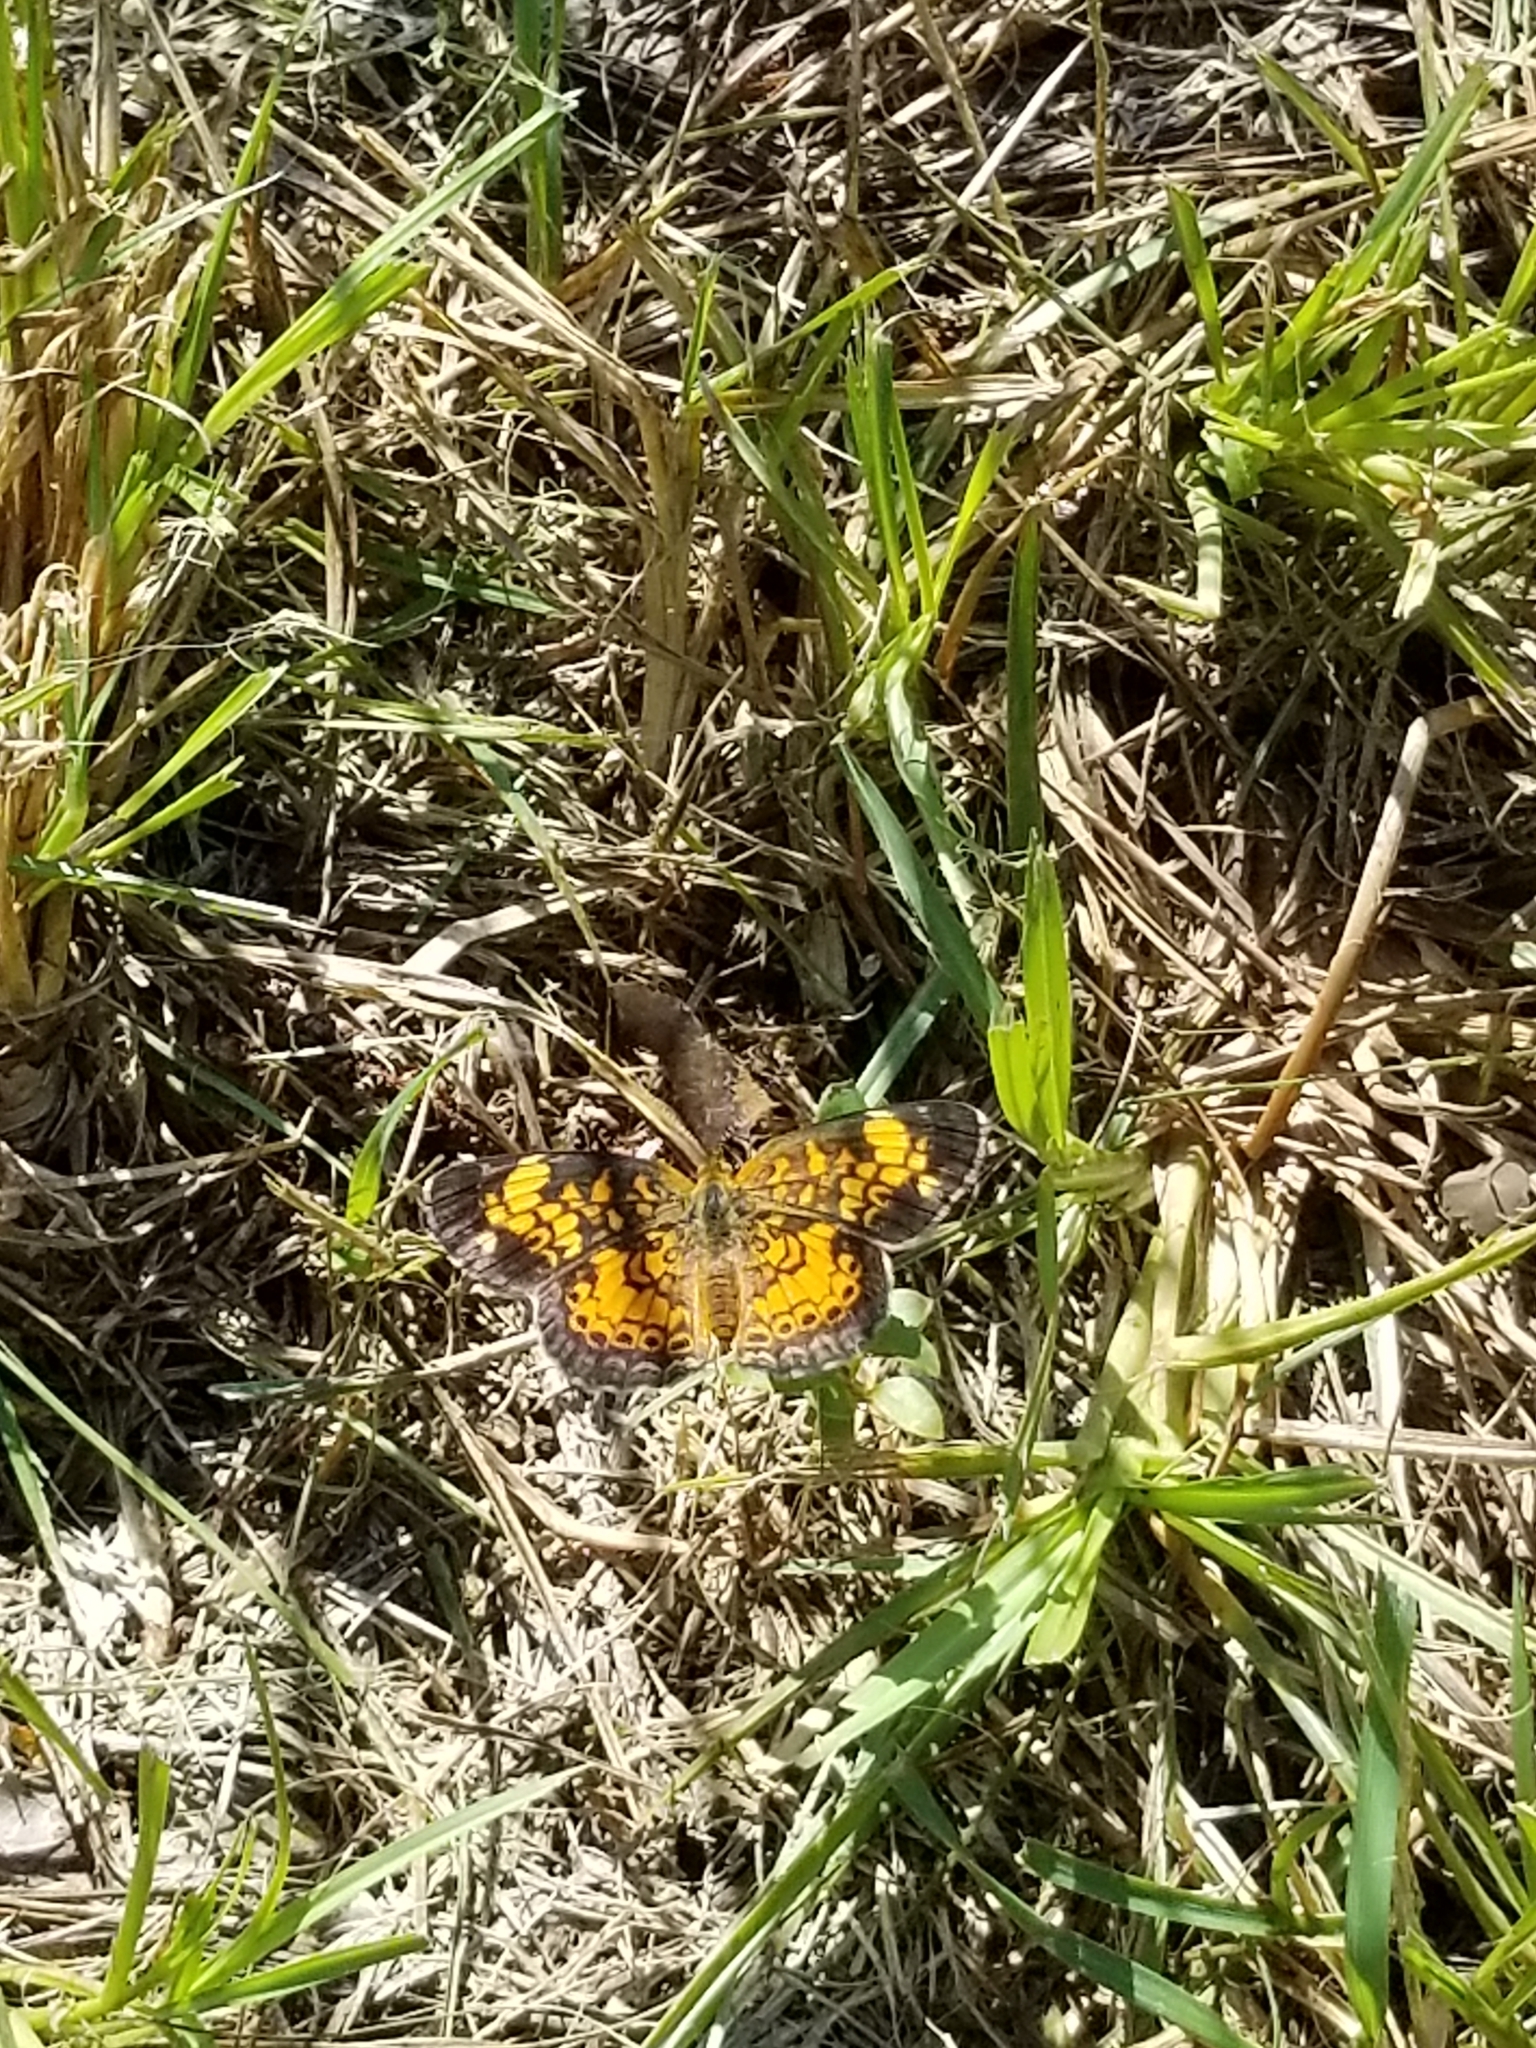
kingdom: Animalia
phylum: Arthropoda
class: Insecta
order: Lepidoptera
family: Nymphalidae
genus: Phyciodes
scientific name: Phyciodes tharos
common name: Pearl crescent
